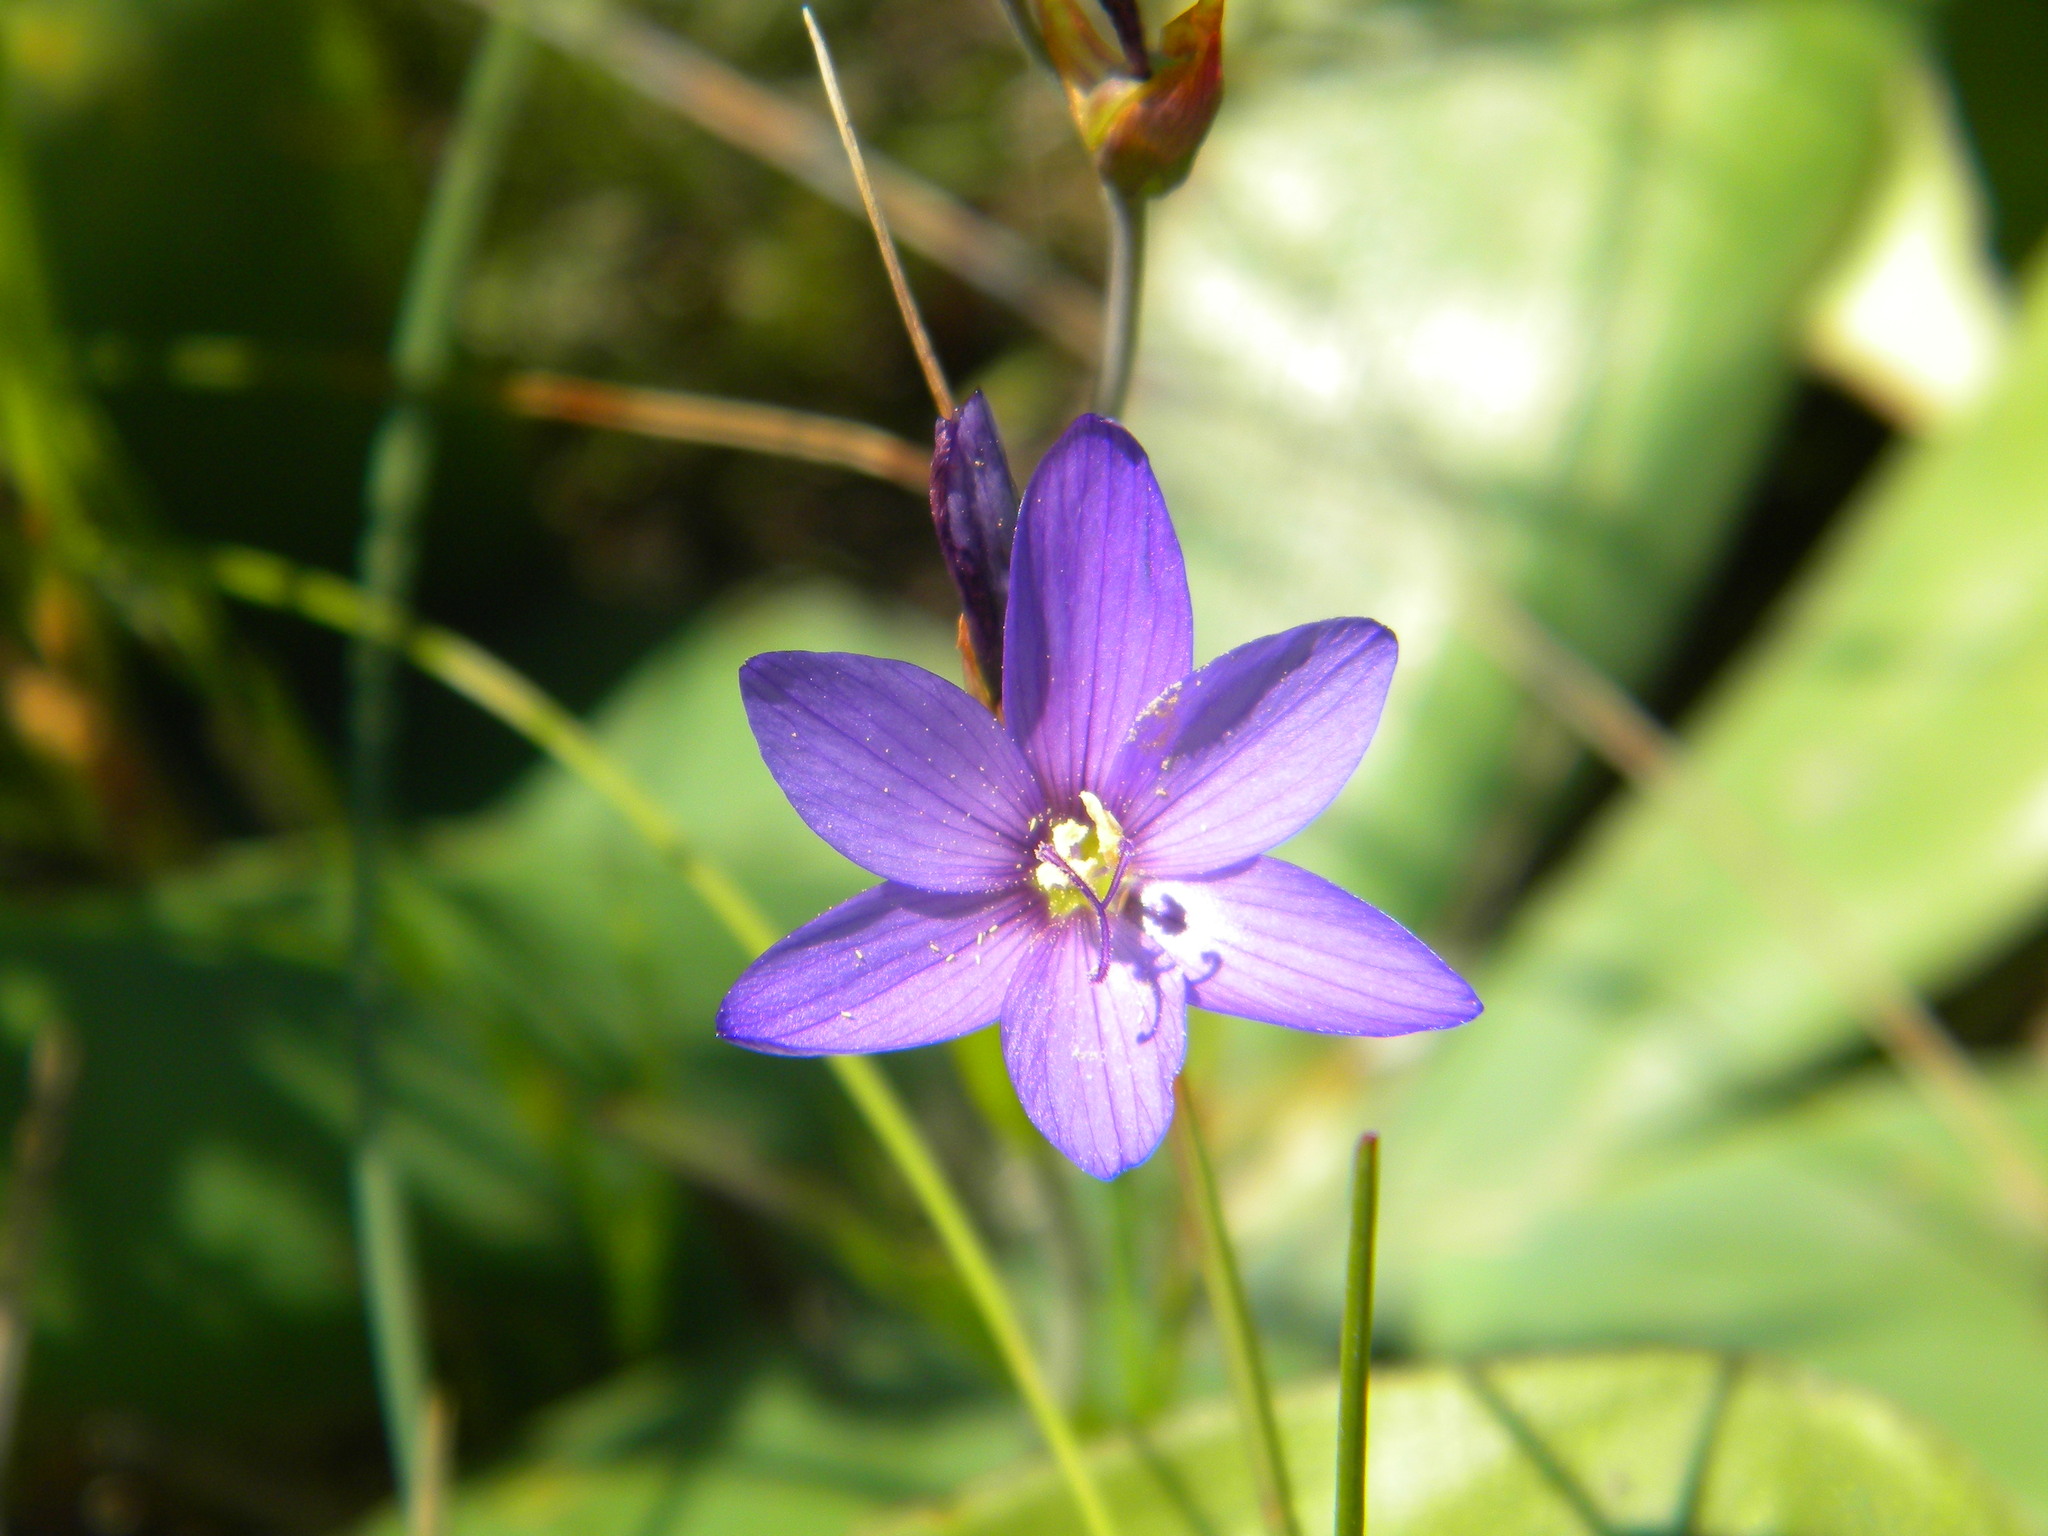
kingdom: Plantae
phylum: Tracheophyta
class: Liliopsida
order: Asparagales
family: Iridaceae
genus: Geissorhiza
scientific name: Geissorhiza aspera
